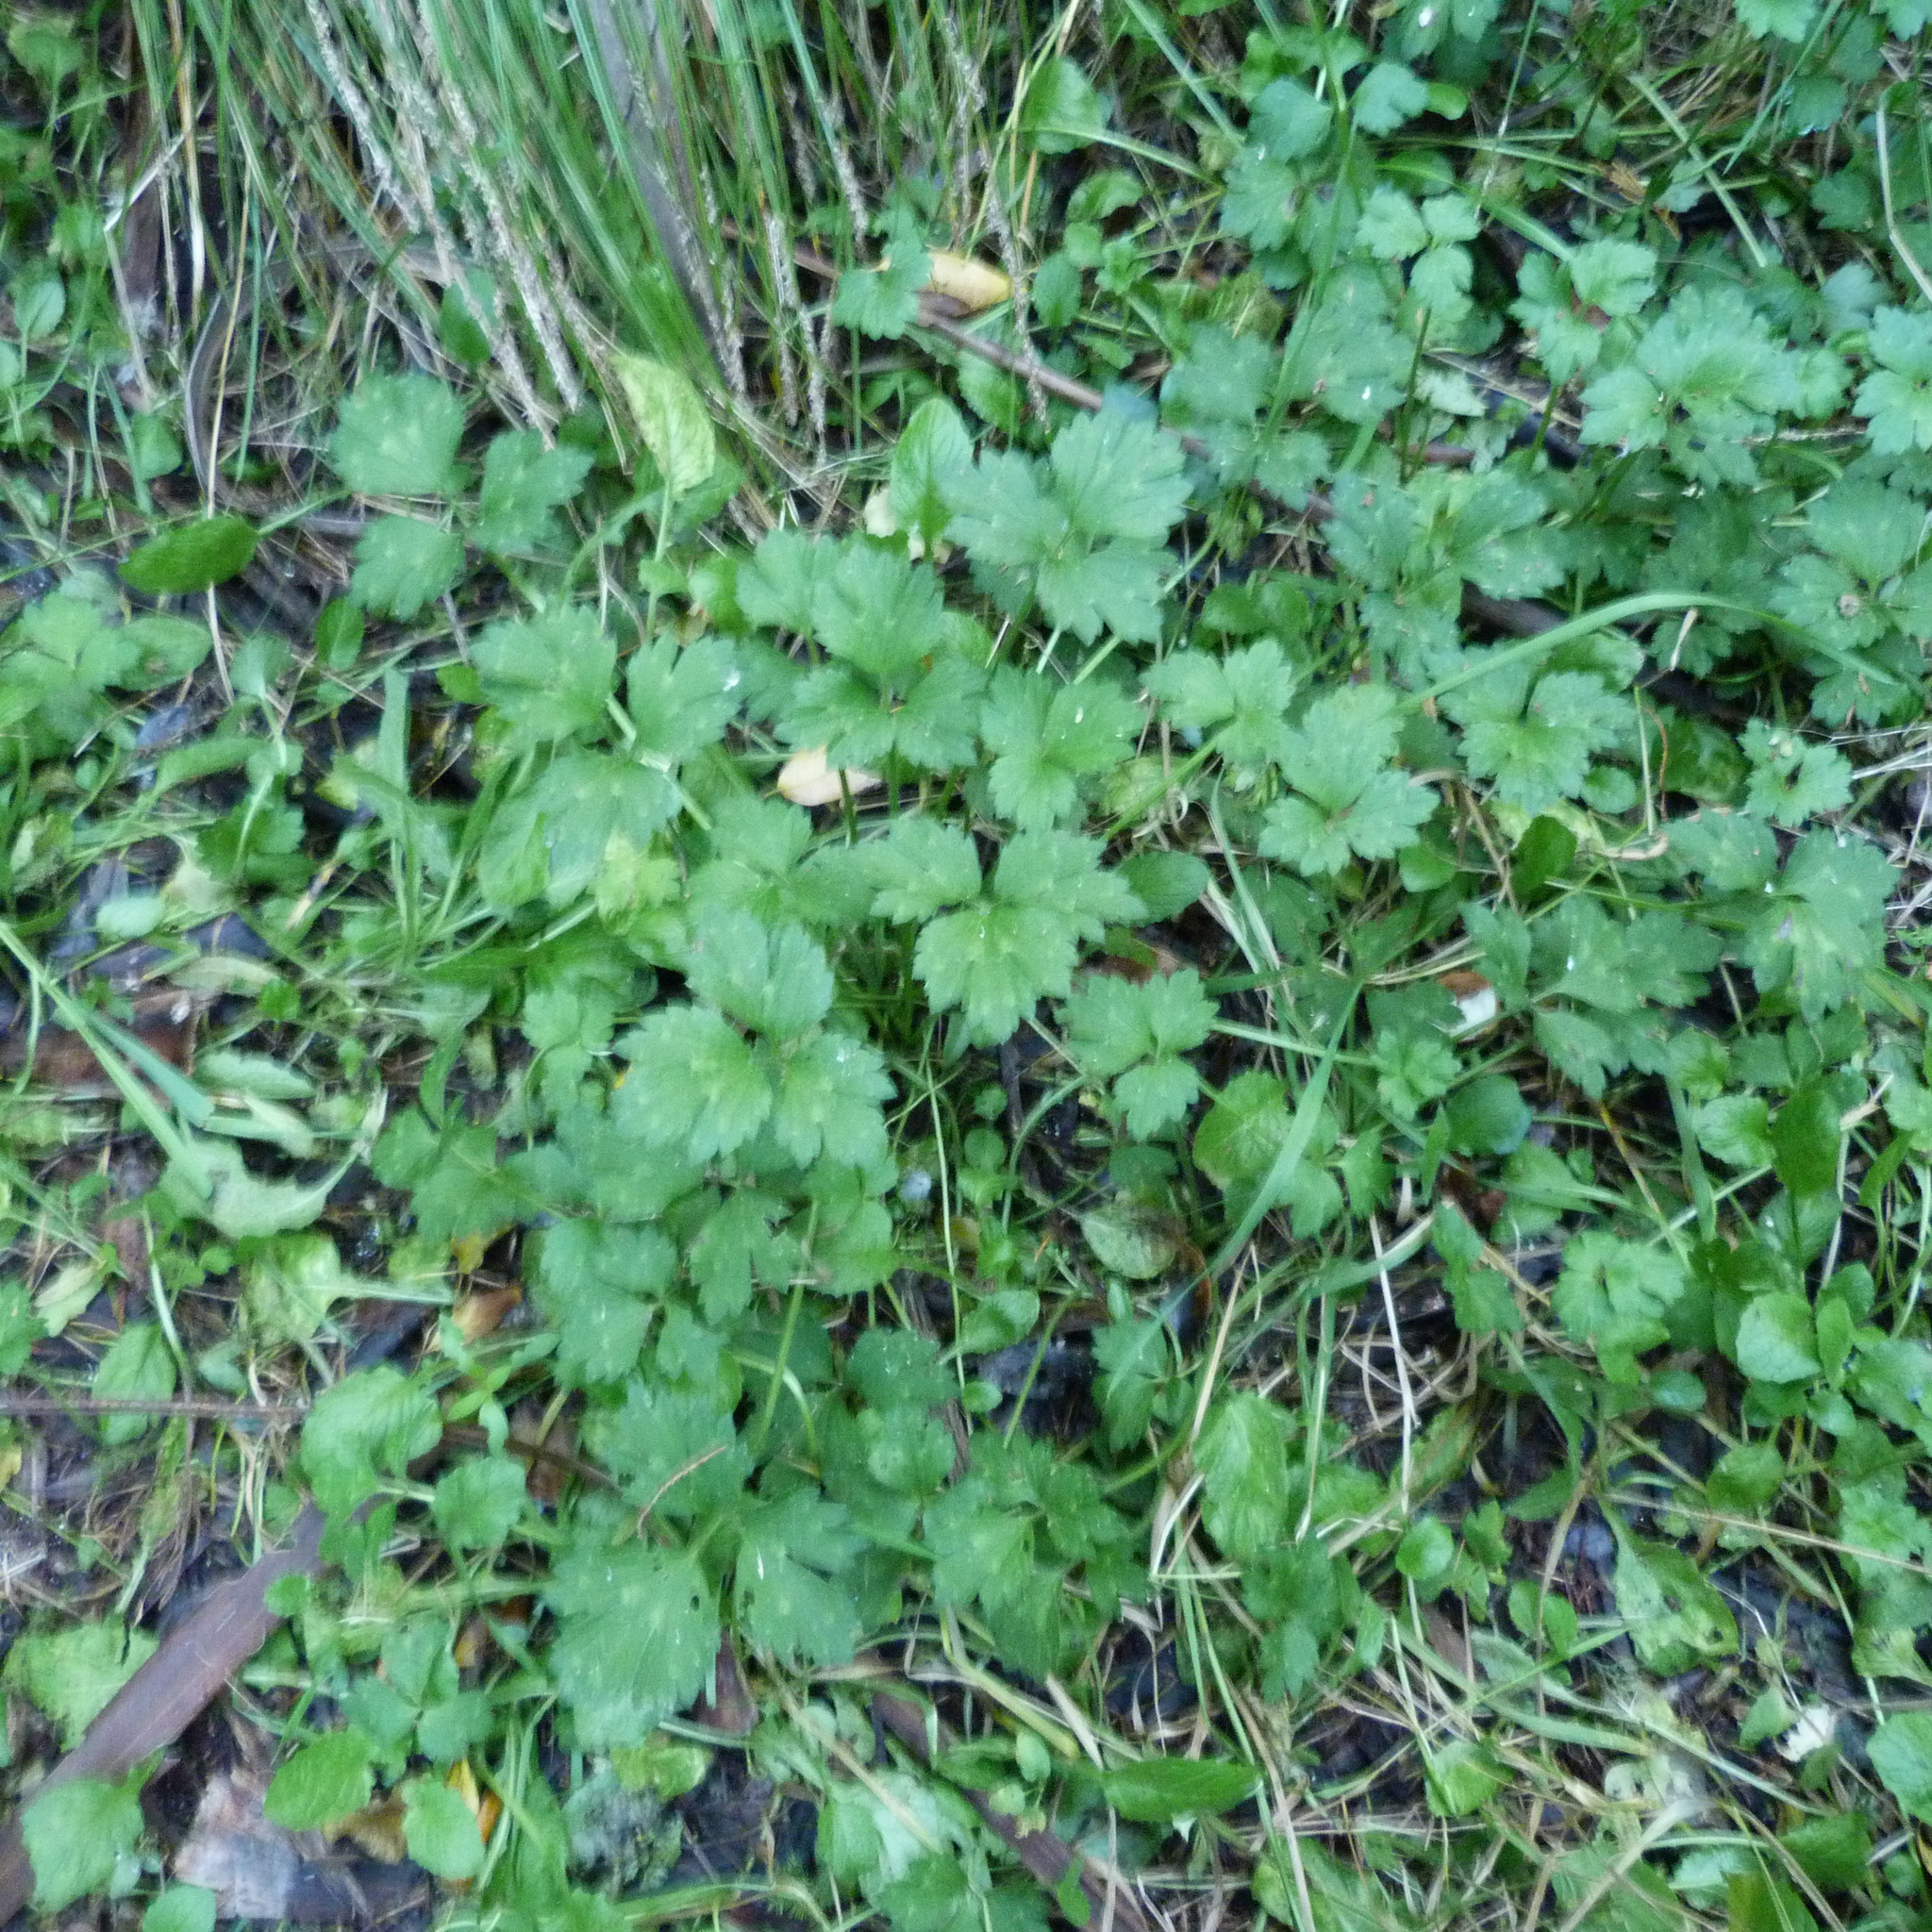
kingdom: Plantae
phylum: Tracheophyta
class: Magnoliopsida
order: Ranunculales
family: Ranunculaceae
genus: Ranunculus
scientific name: Ranunculus repens
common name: Creeping buttercup
